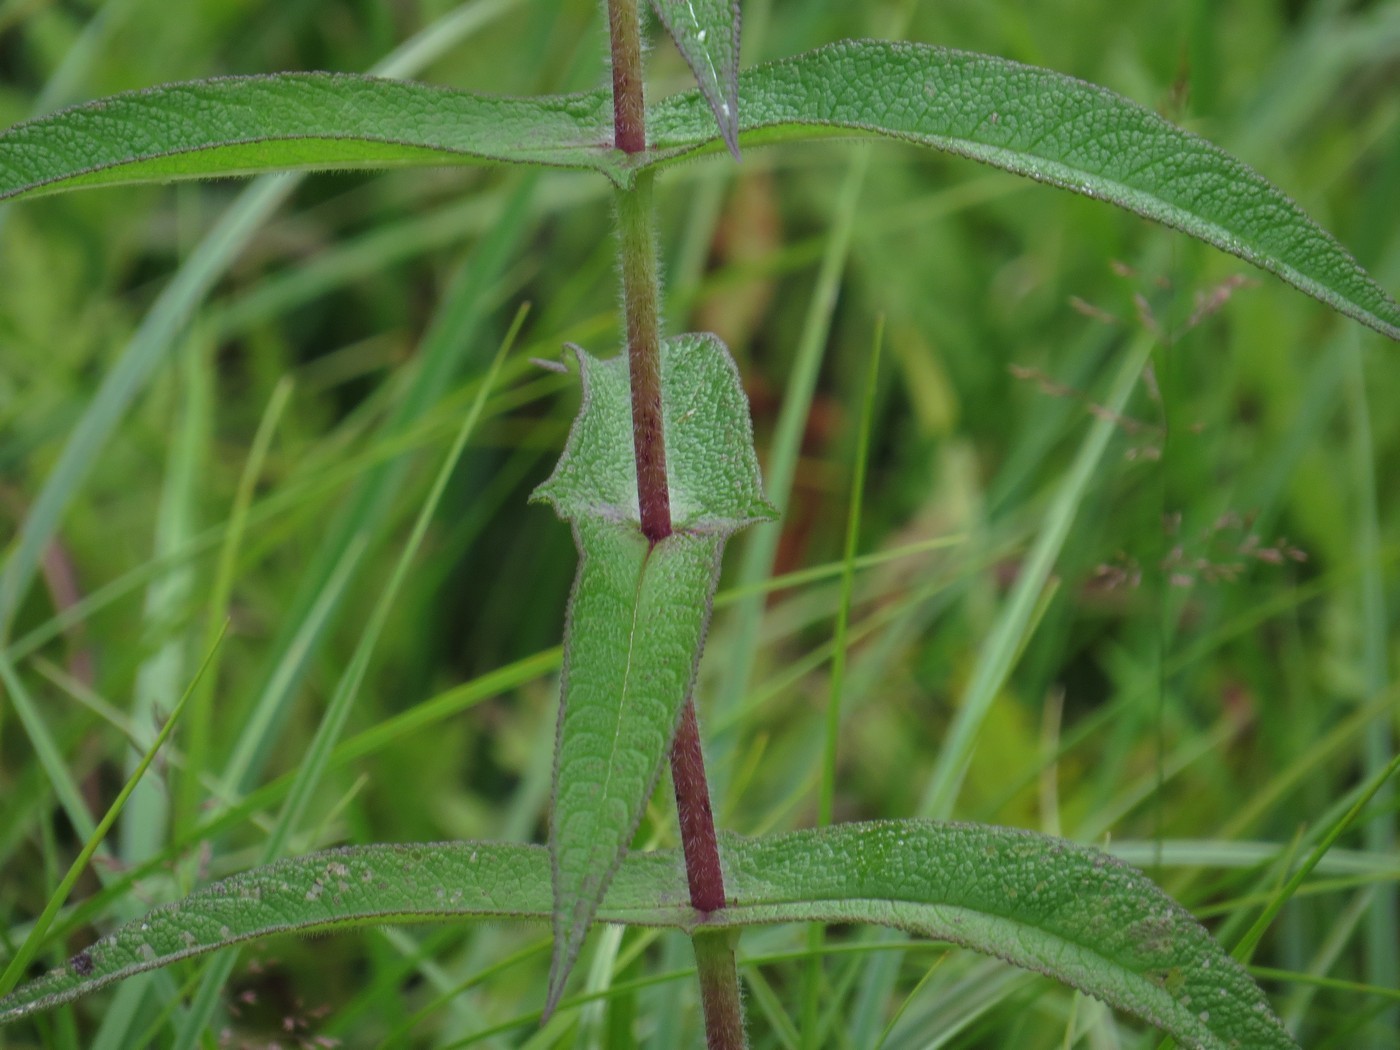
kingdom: Plantae
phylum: Tracheophyta
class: Magnoliopsida
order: Asterales
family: Asteraceae
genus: Eupatorium
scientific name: Eupatorium perfoliatum
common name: Boneset
